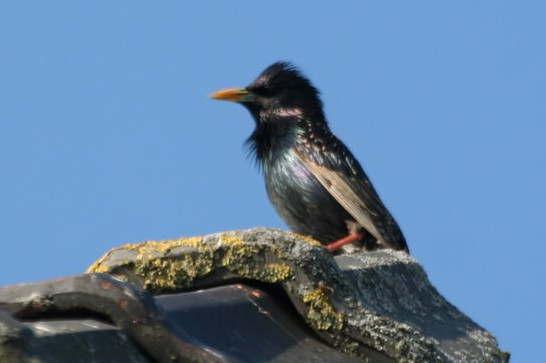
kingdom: Animalia
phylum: Chordata
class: Aves
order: Passeriformes
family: Sturnidae
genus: Sturnus
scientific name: Sturnus vulgaris
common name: Common starling
